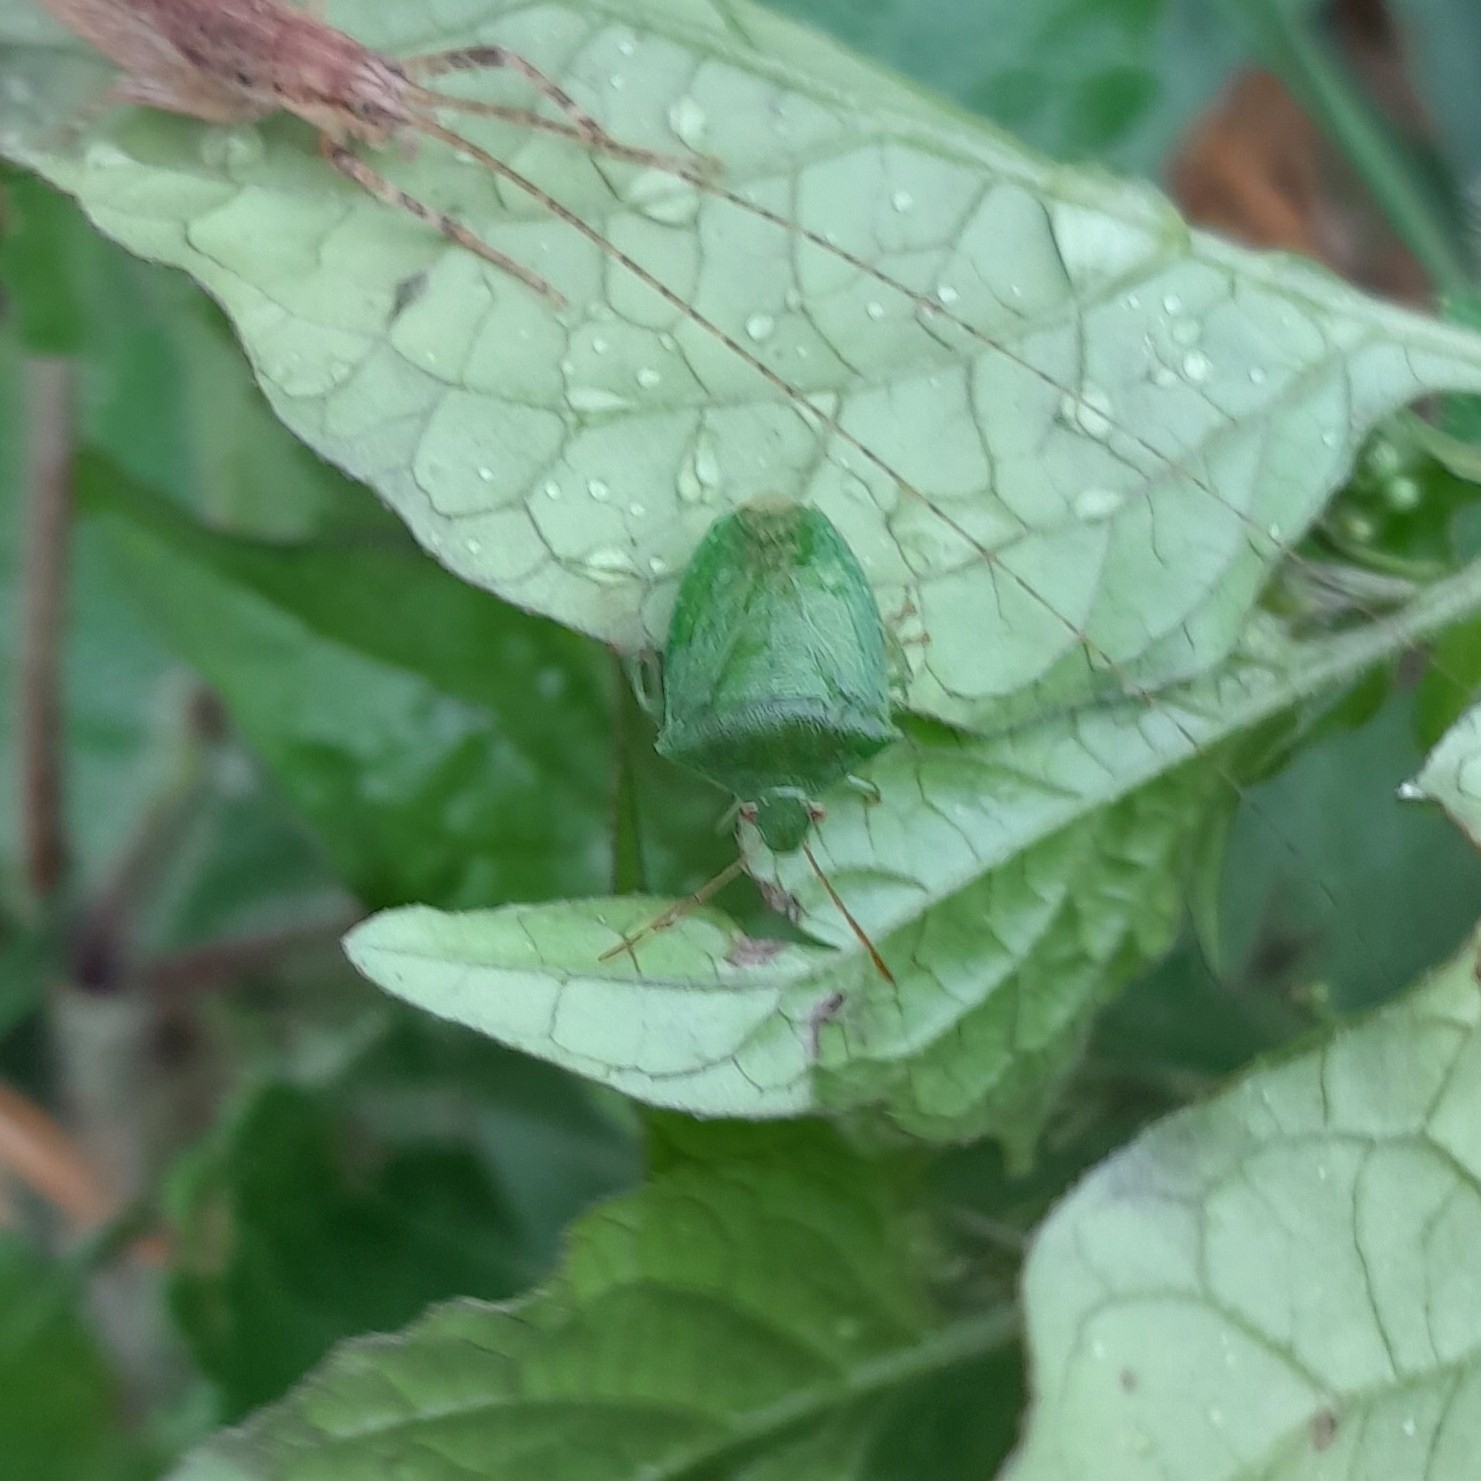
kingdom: Animalia
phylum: Arthropoda
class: Insecta
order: Hemiptera
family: Pentatomidae
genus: Cuspicona
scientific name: Cuspicona simplex
